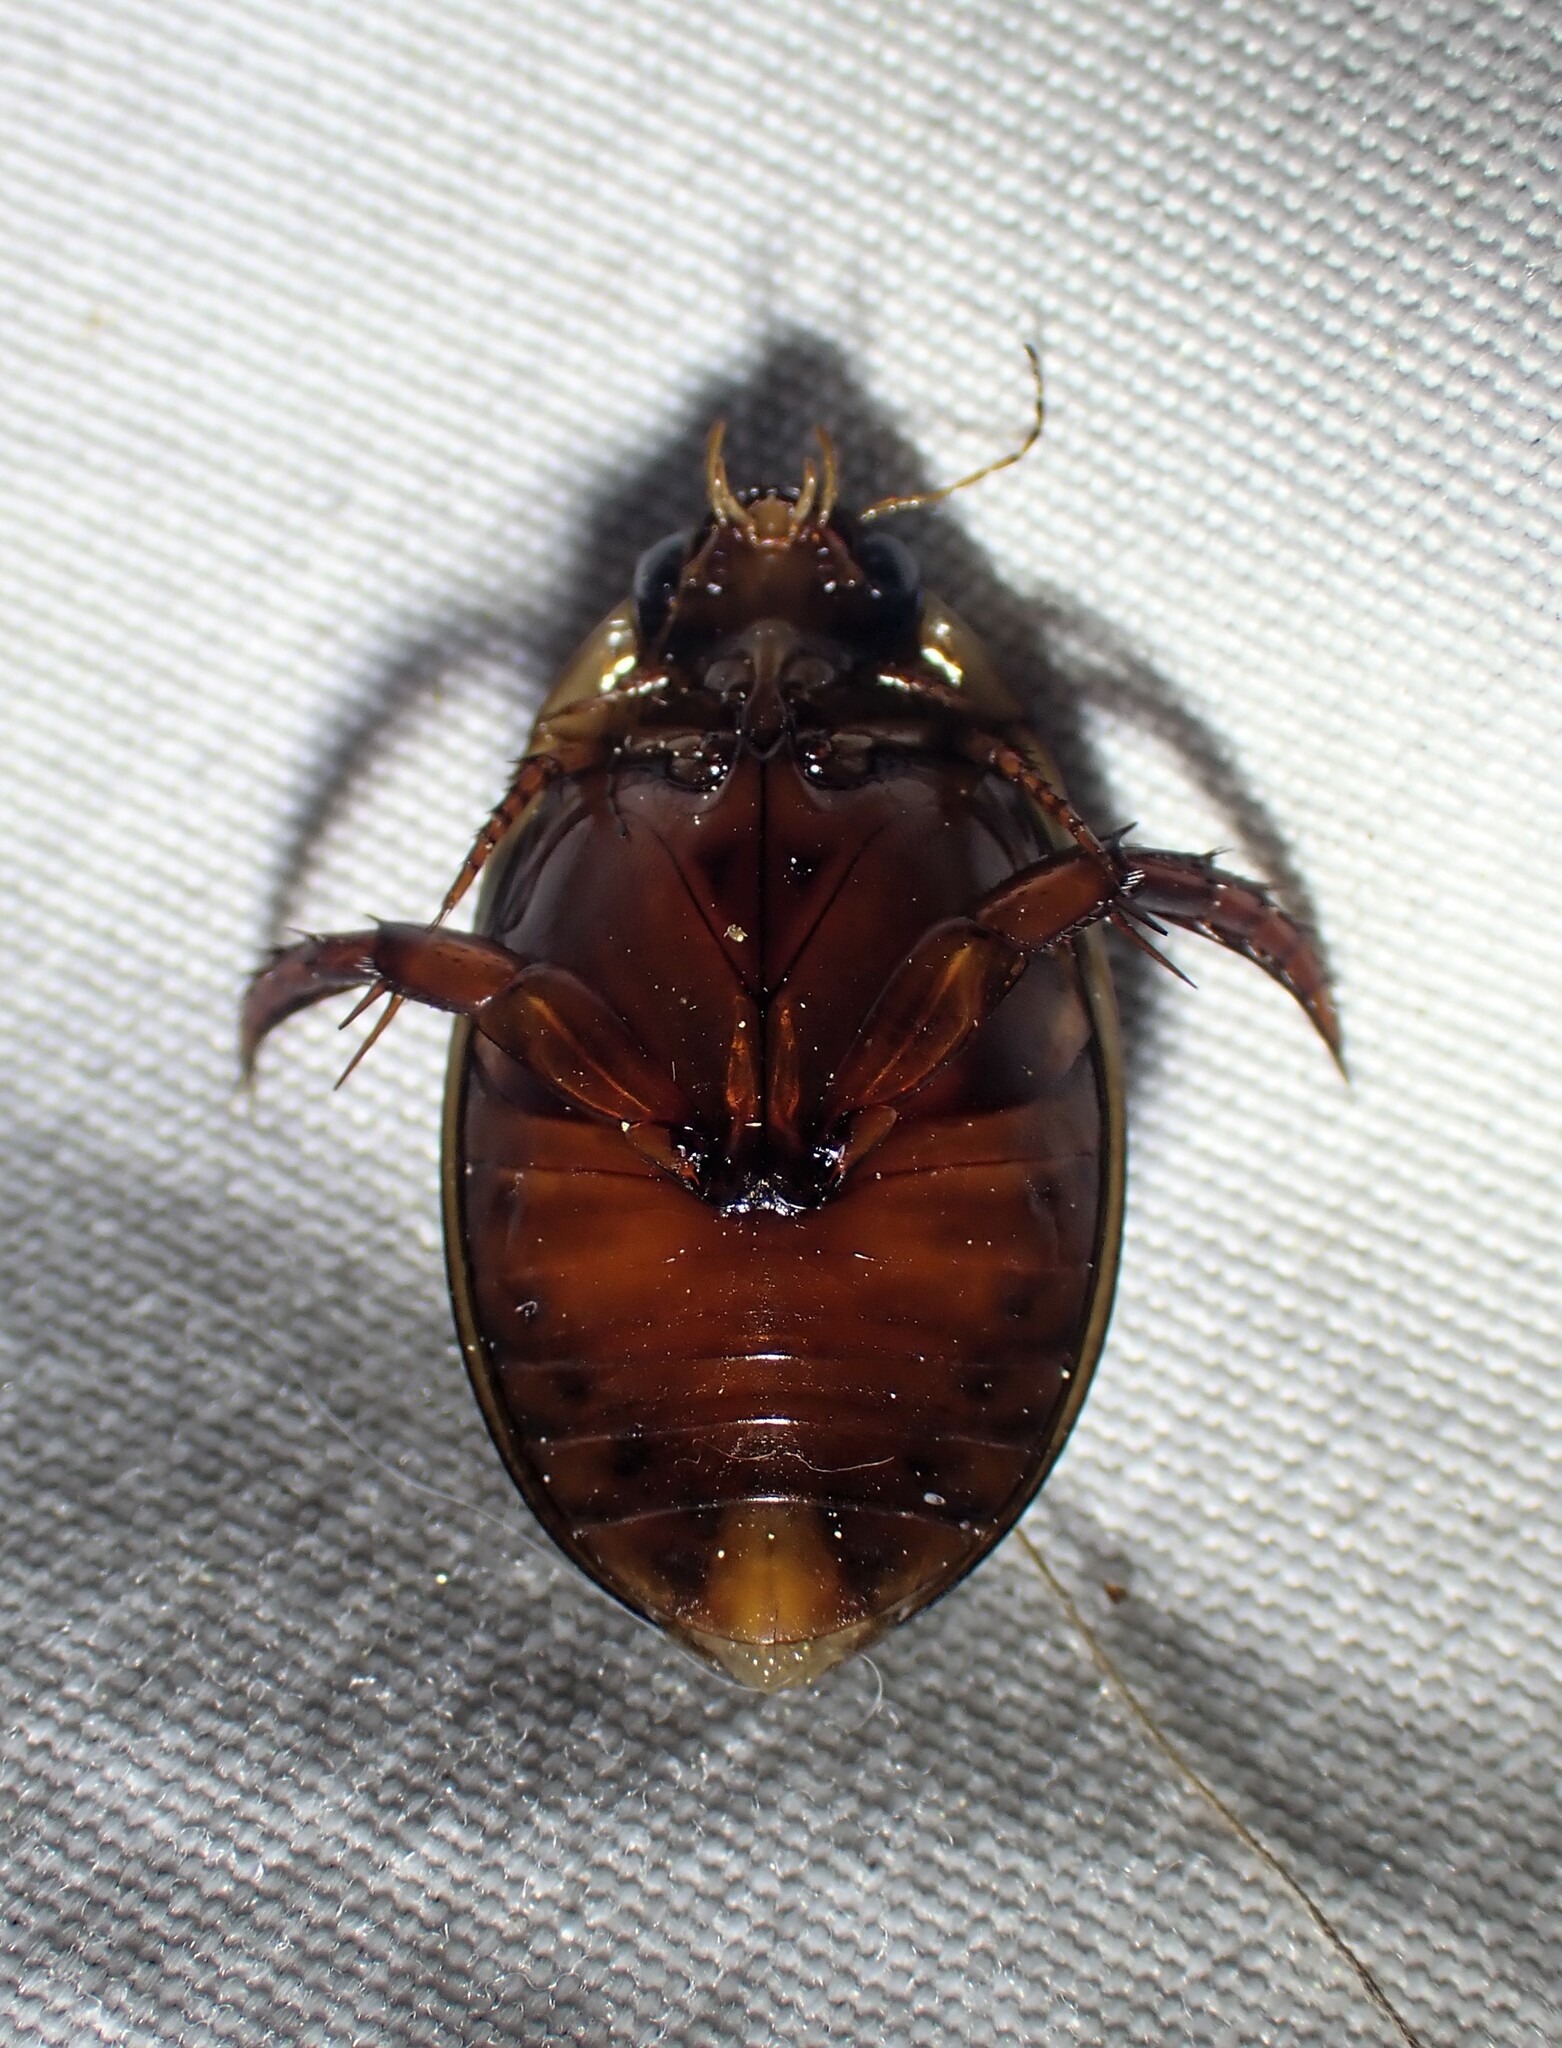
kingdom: Animalia
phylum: Arthropoda
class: Insecta
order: Coleoptera
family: Dytiscidae
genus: Graphoderus
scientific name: Graphoderus fascicollis
